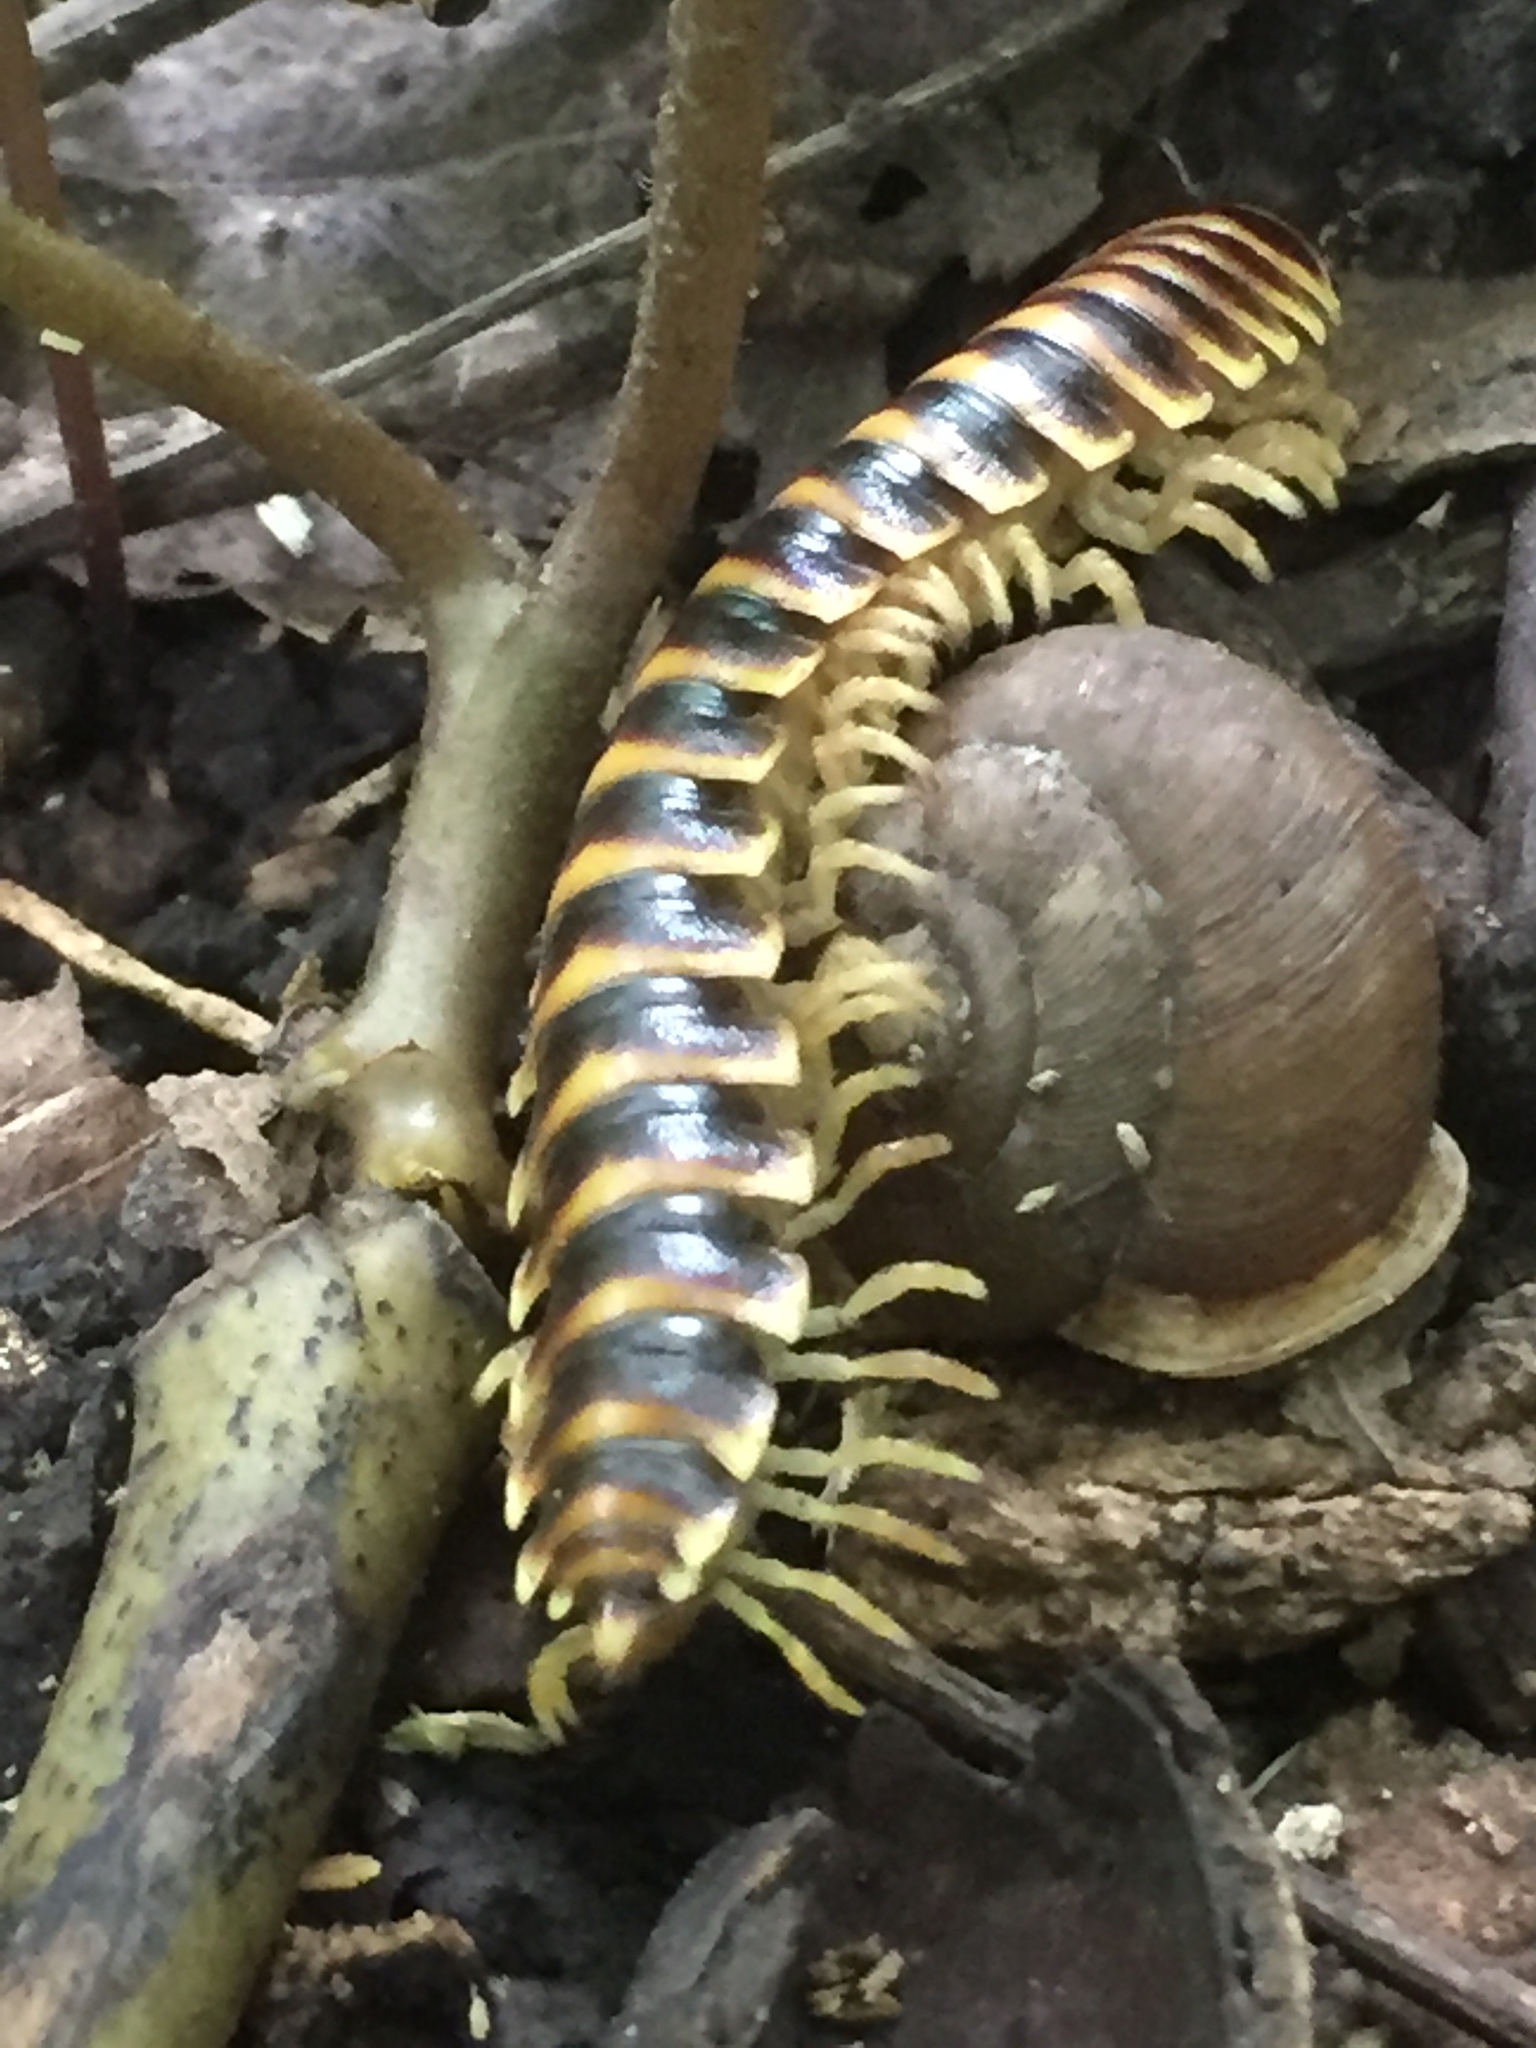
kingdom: Animalia
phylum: Arthropoda
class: Diplopoda
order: Polydesmida
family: Xystodesmidae
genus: Pleuroloma
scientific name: Pleuroloma flavipes
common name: Yellow-legged pleuroloma
